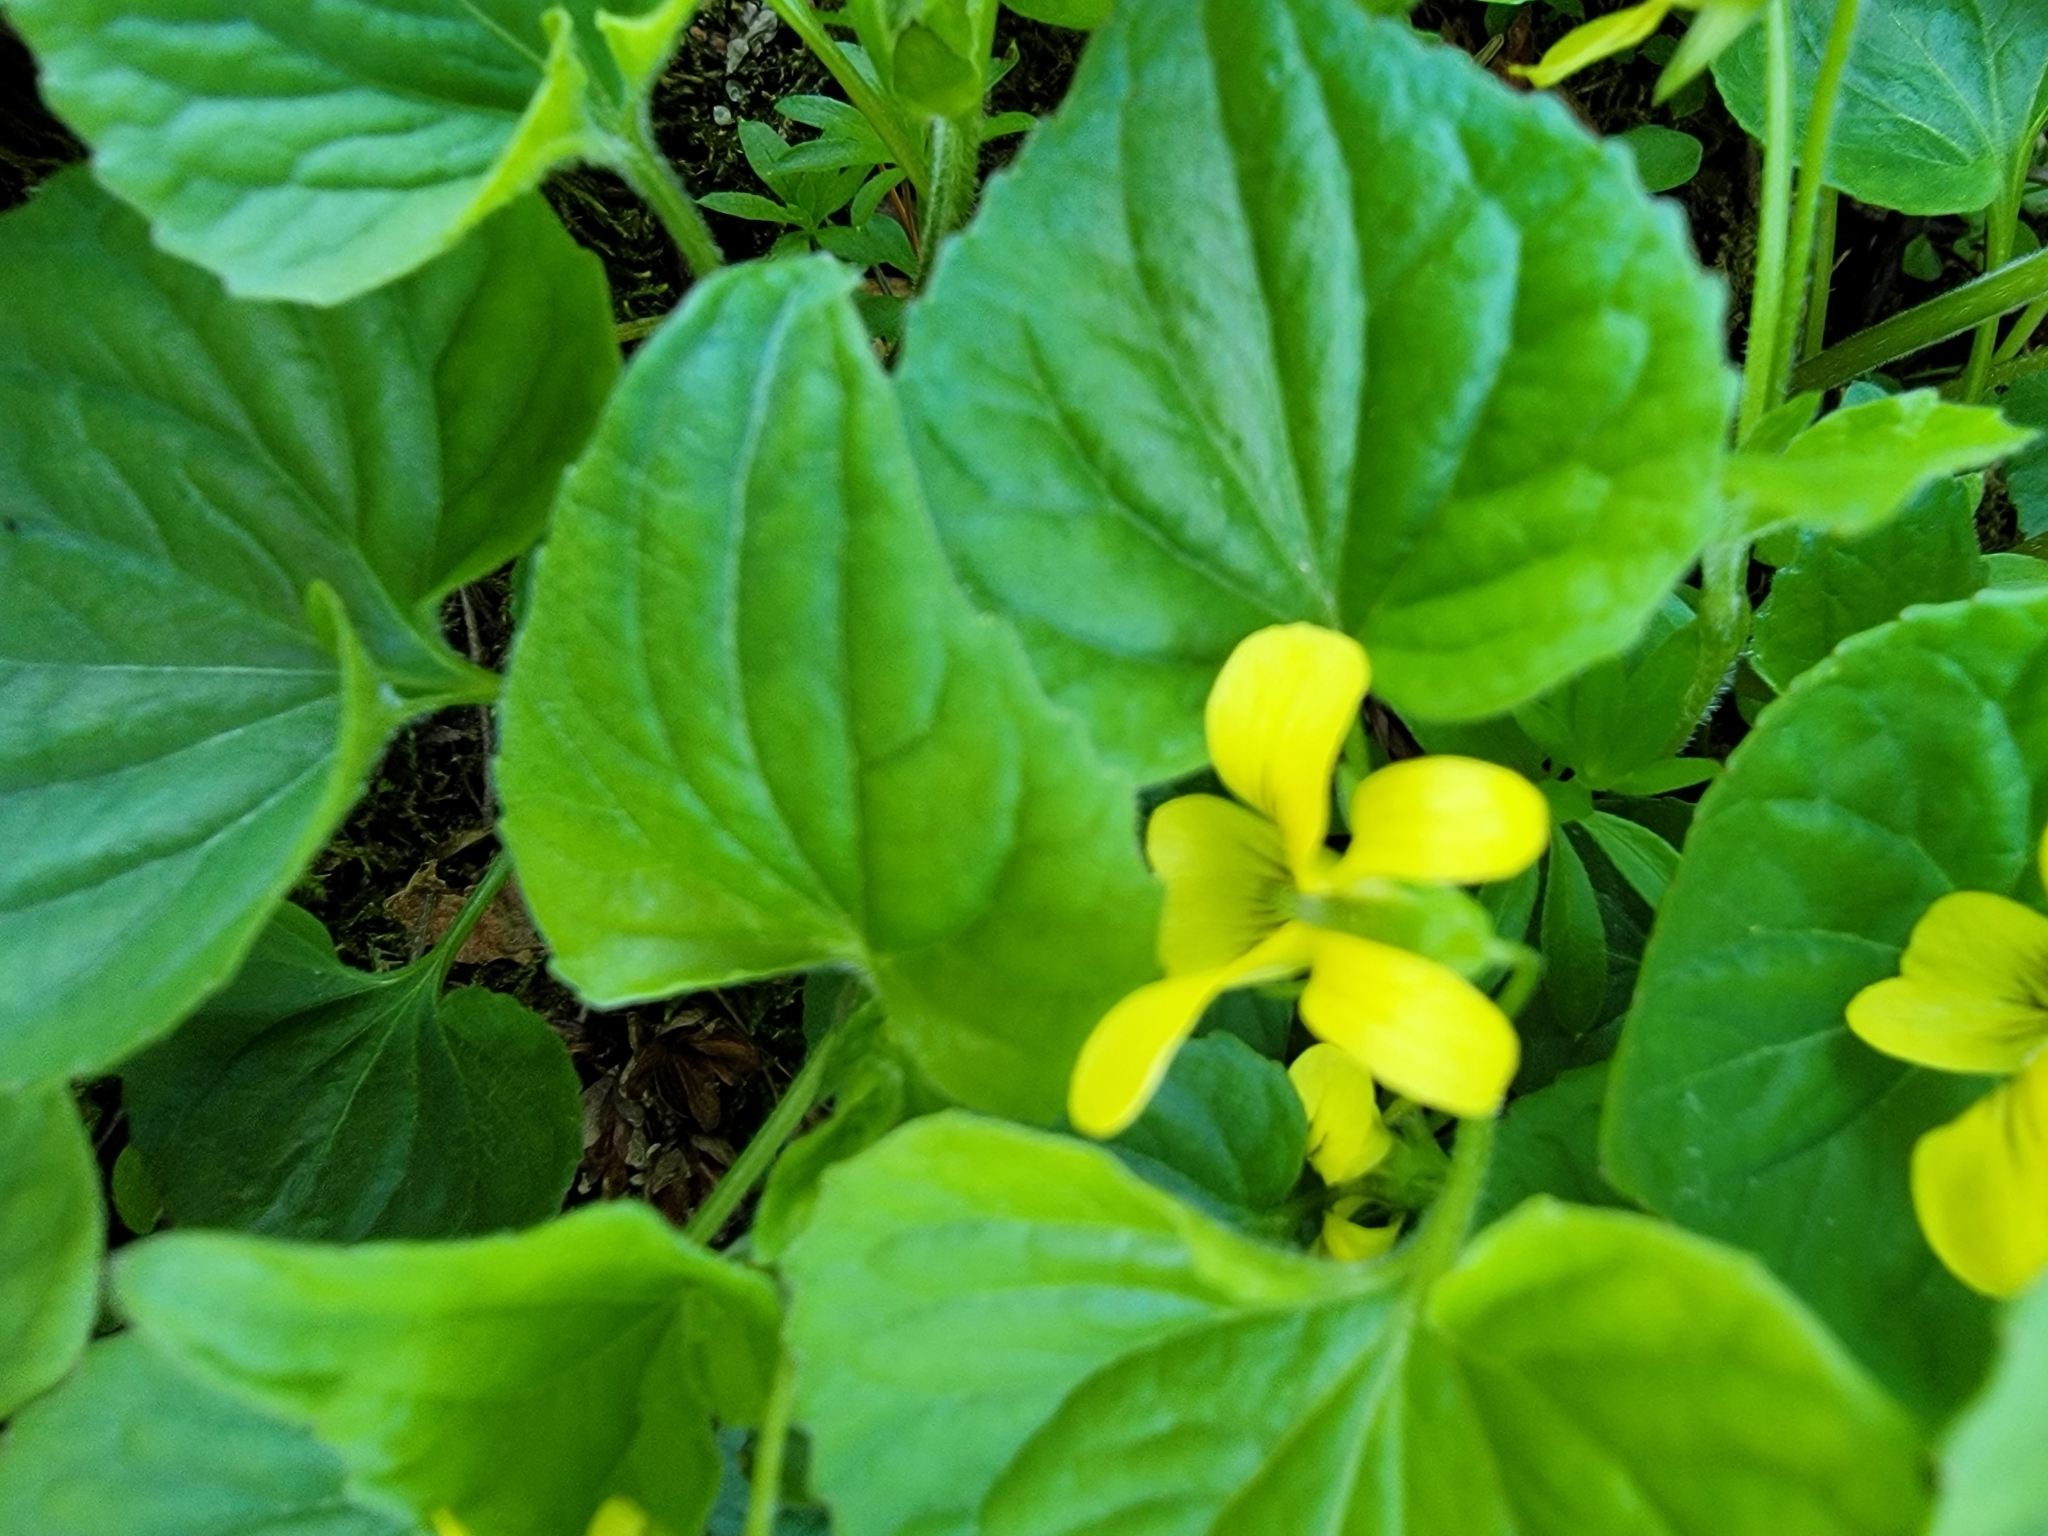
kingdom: Plantae
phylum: Tracheophyta
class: Magnoliopsida
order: Malpighiales
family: Violaceae
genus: Viola
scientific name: Viola eriocarpa
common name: Smooth yellow violet
